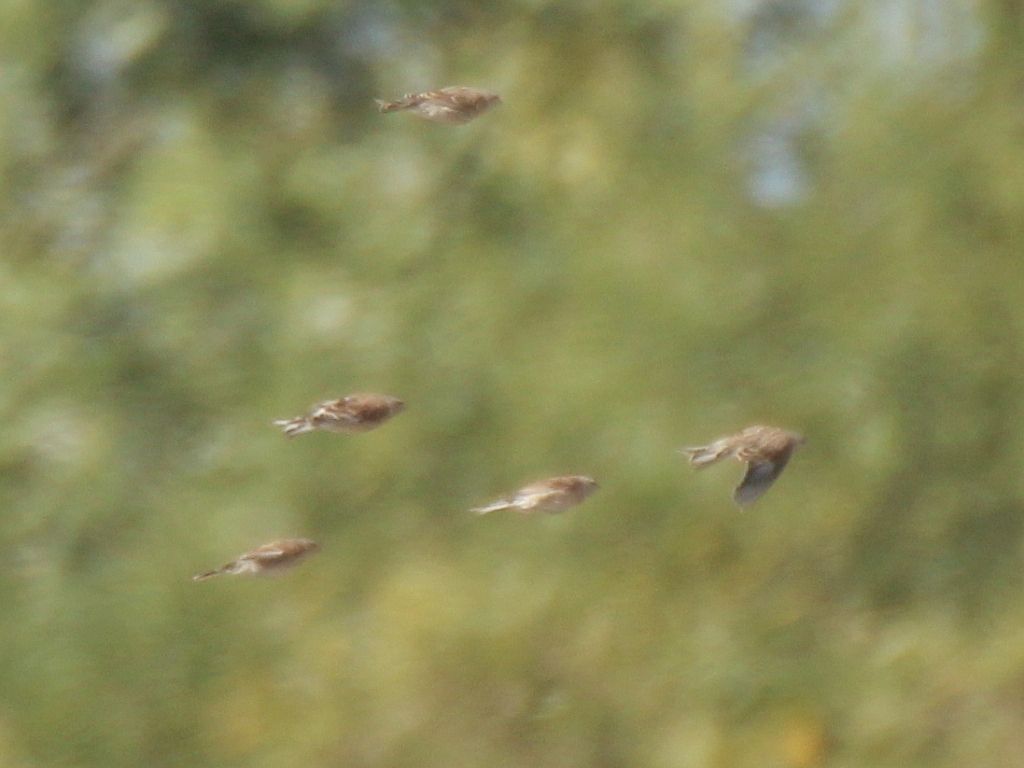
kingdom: Animalia
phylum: Chordata
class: Aves
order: Passeriformes
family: Fringillidae
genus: Linaria
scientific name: Linaria cannabina
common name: Common linnet
